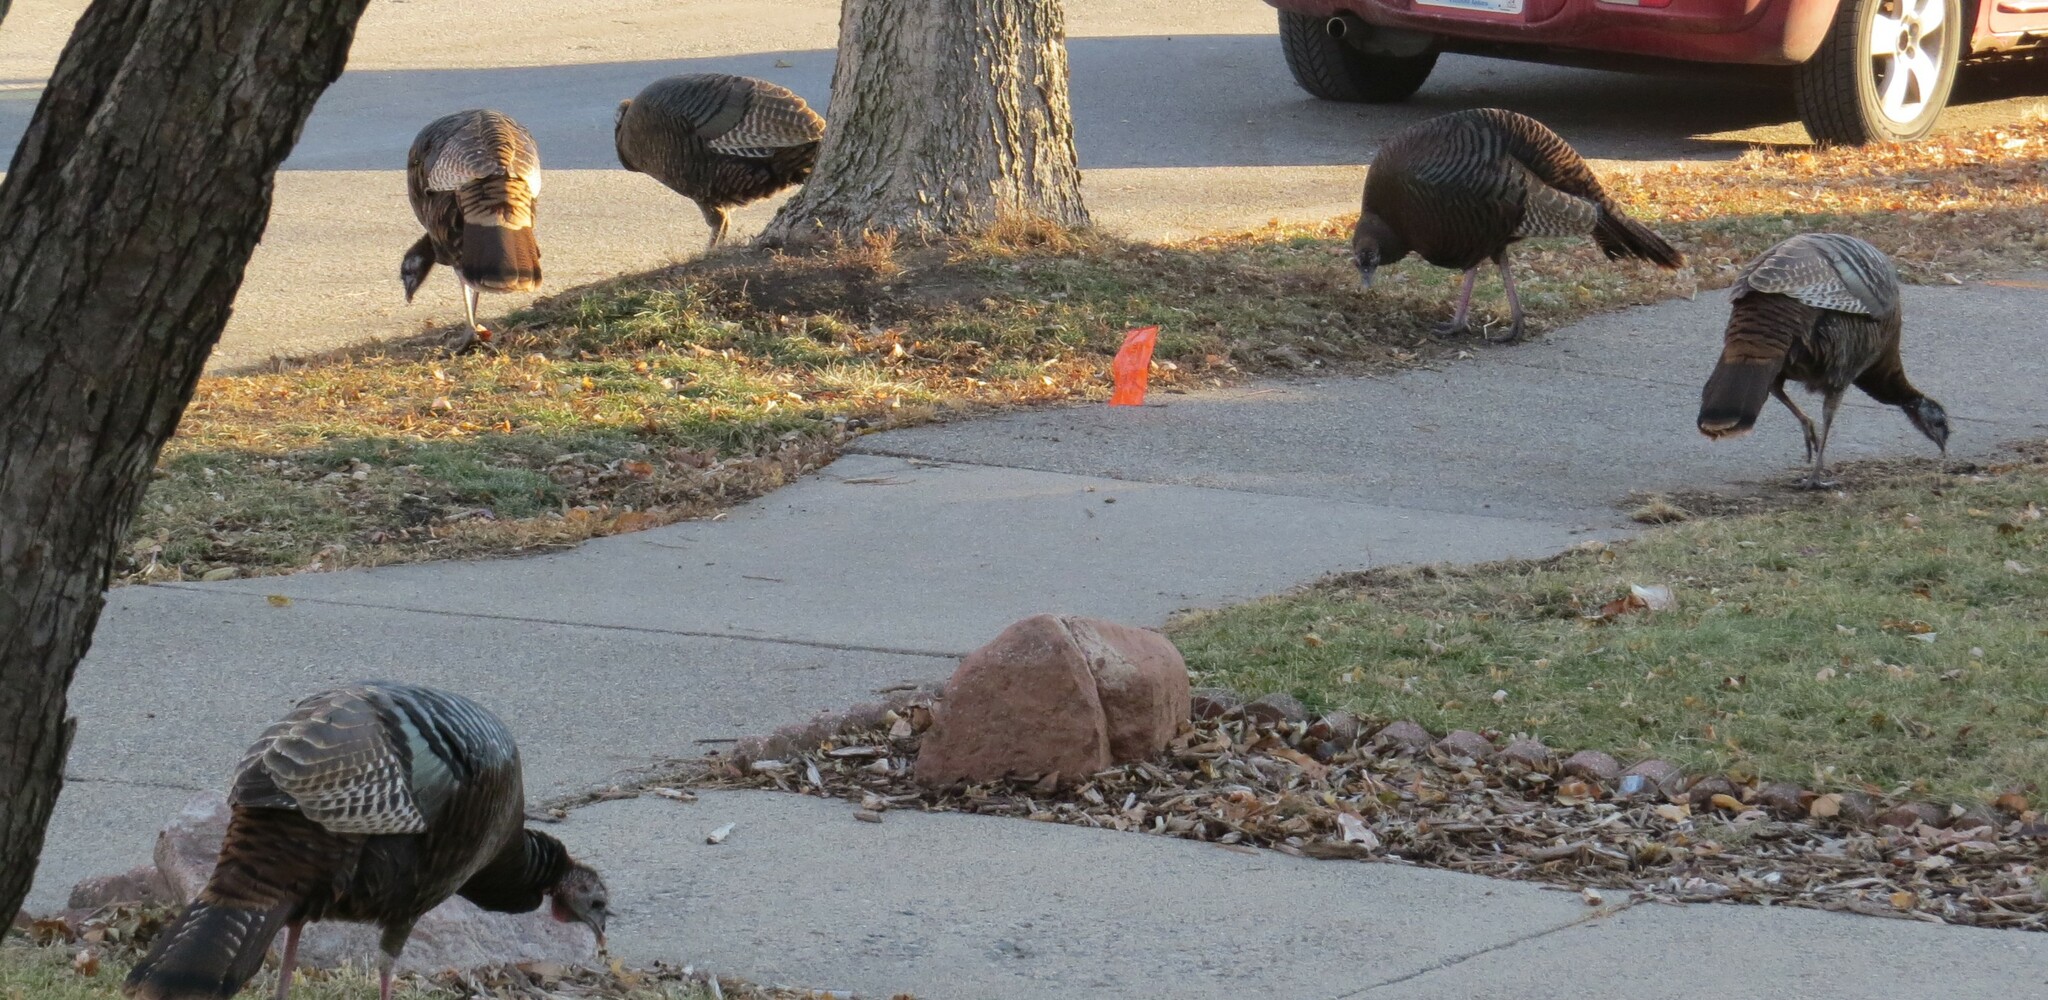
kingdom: Animalia
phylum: Chordata
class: Aves
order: Galliformes
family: Phasianidae
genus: Meleagris
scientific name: Meleagris gallopavo
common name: Wild turkey
